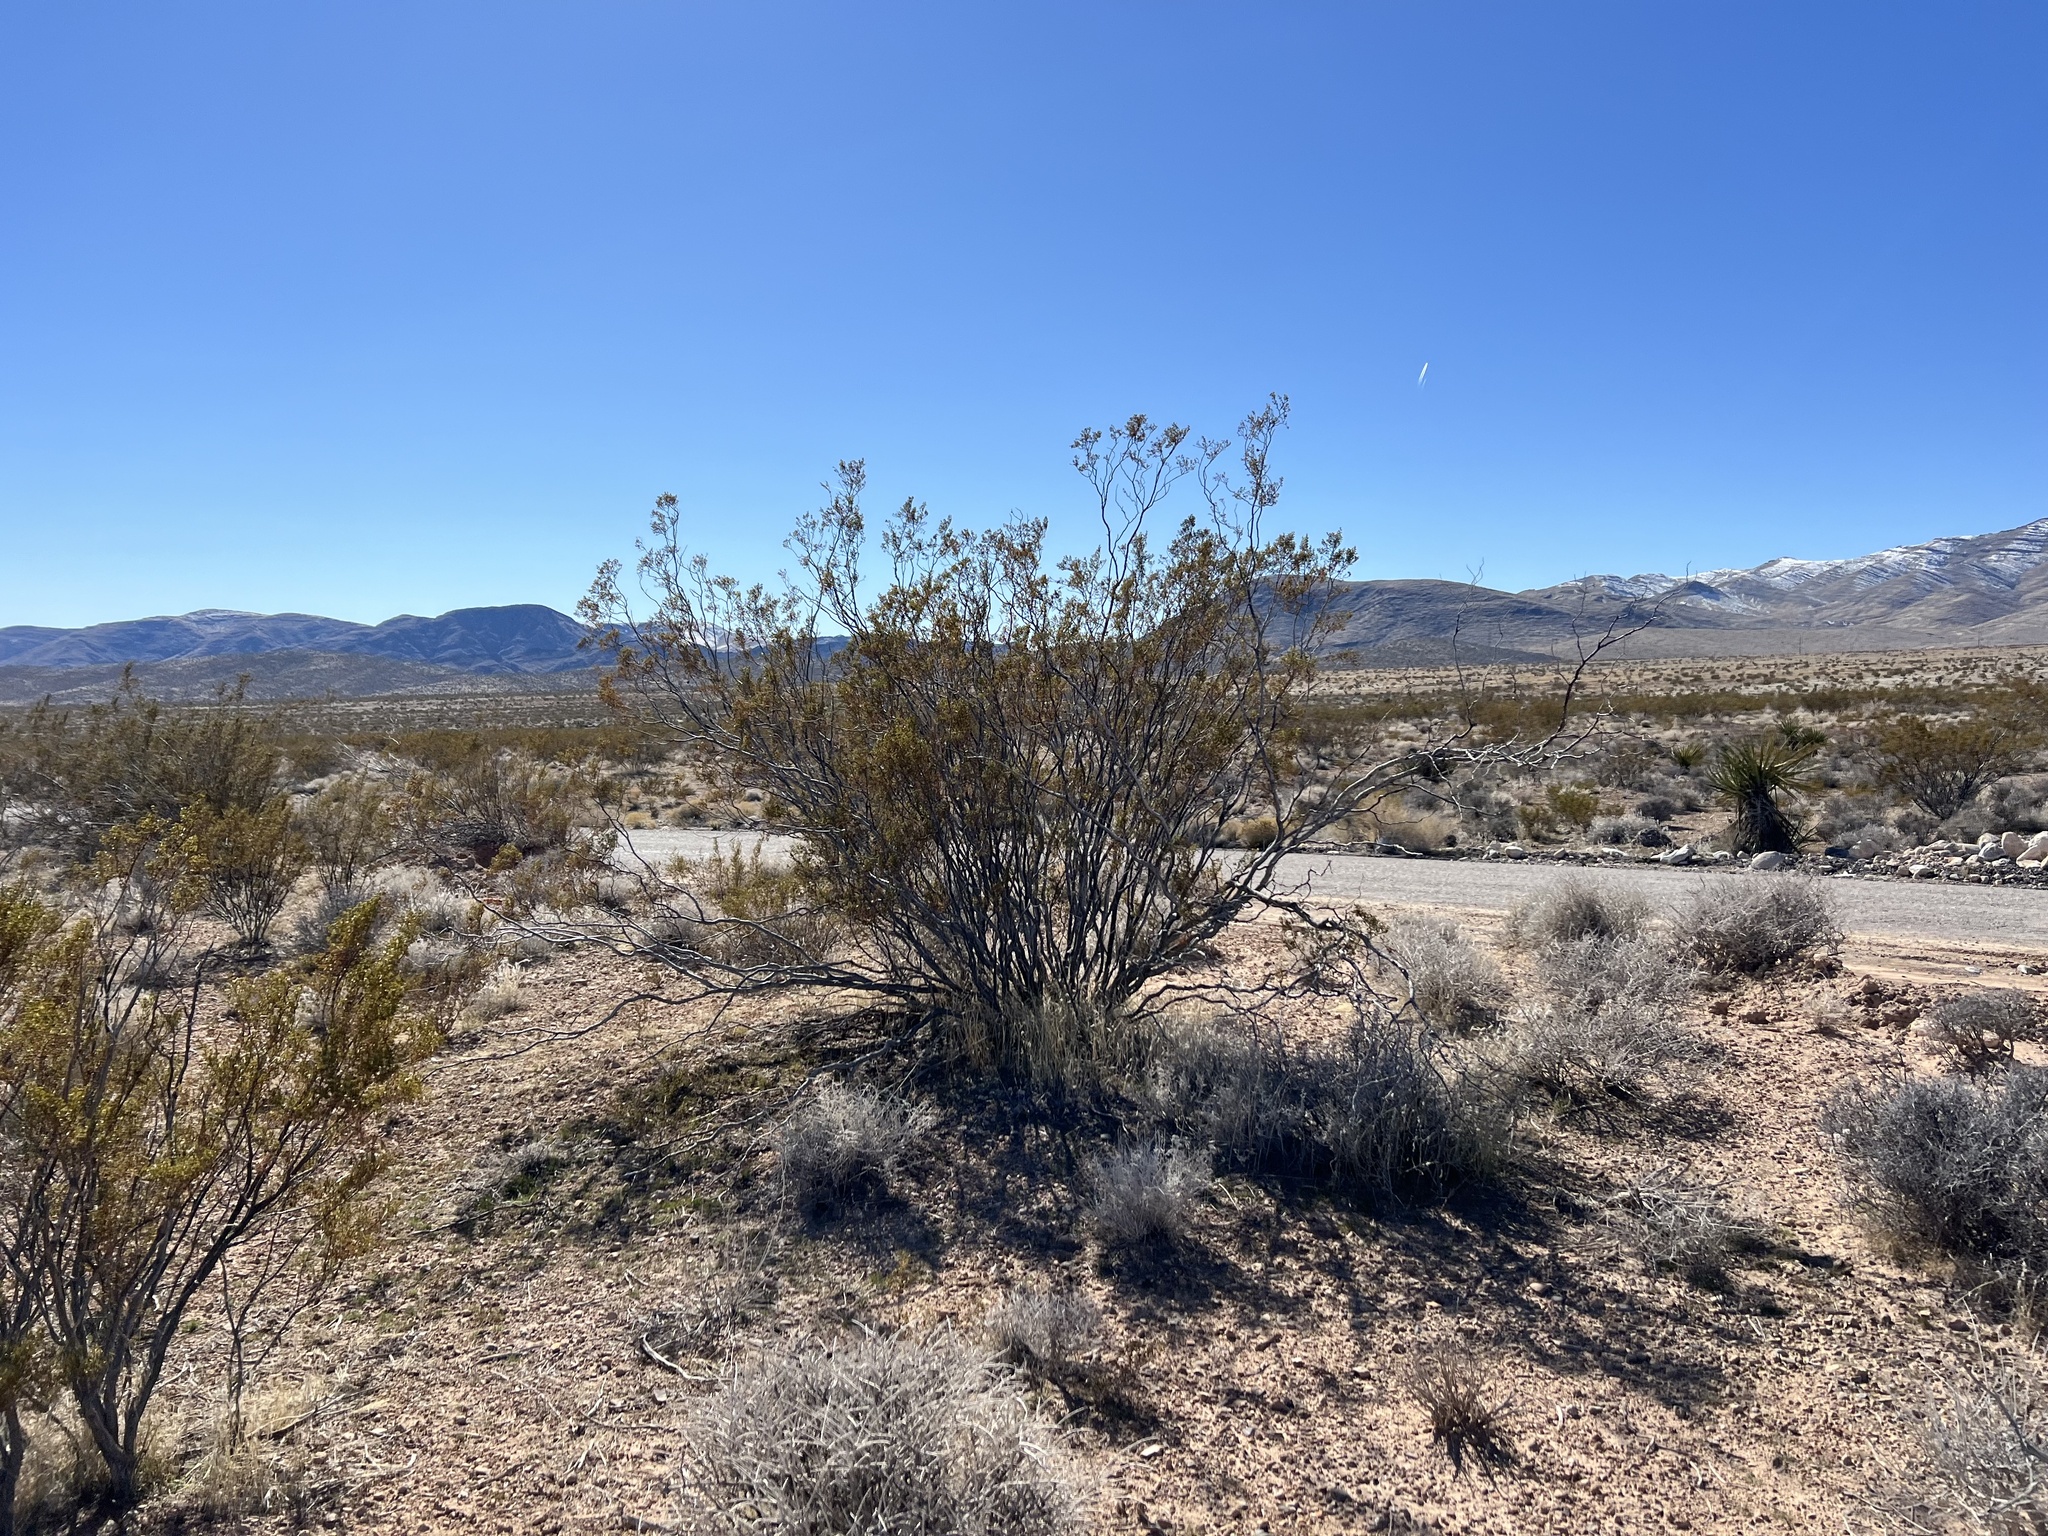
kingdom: Plantae
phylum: Tracheophyta
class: Magnoliopsida
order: Zygophyllales
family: Zygophyllaceae
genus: Larrea
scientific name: Larrea tridentata
